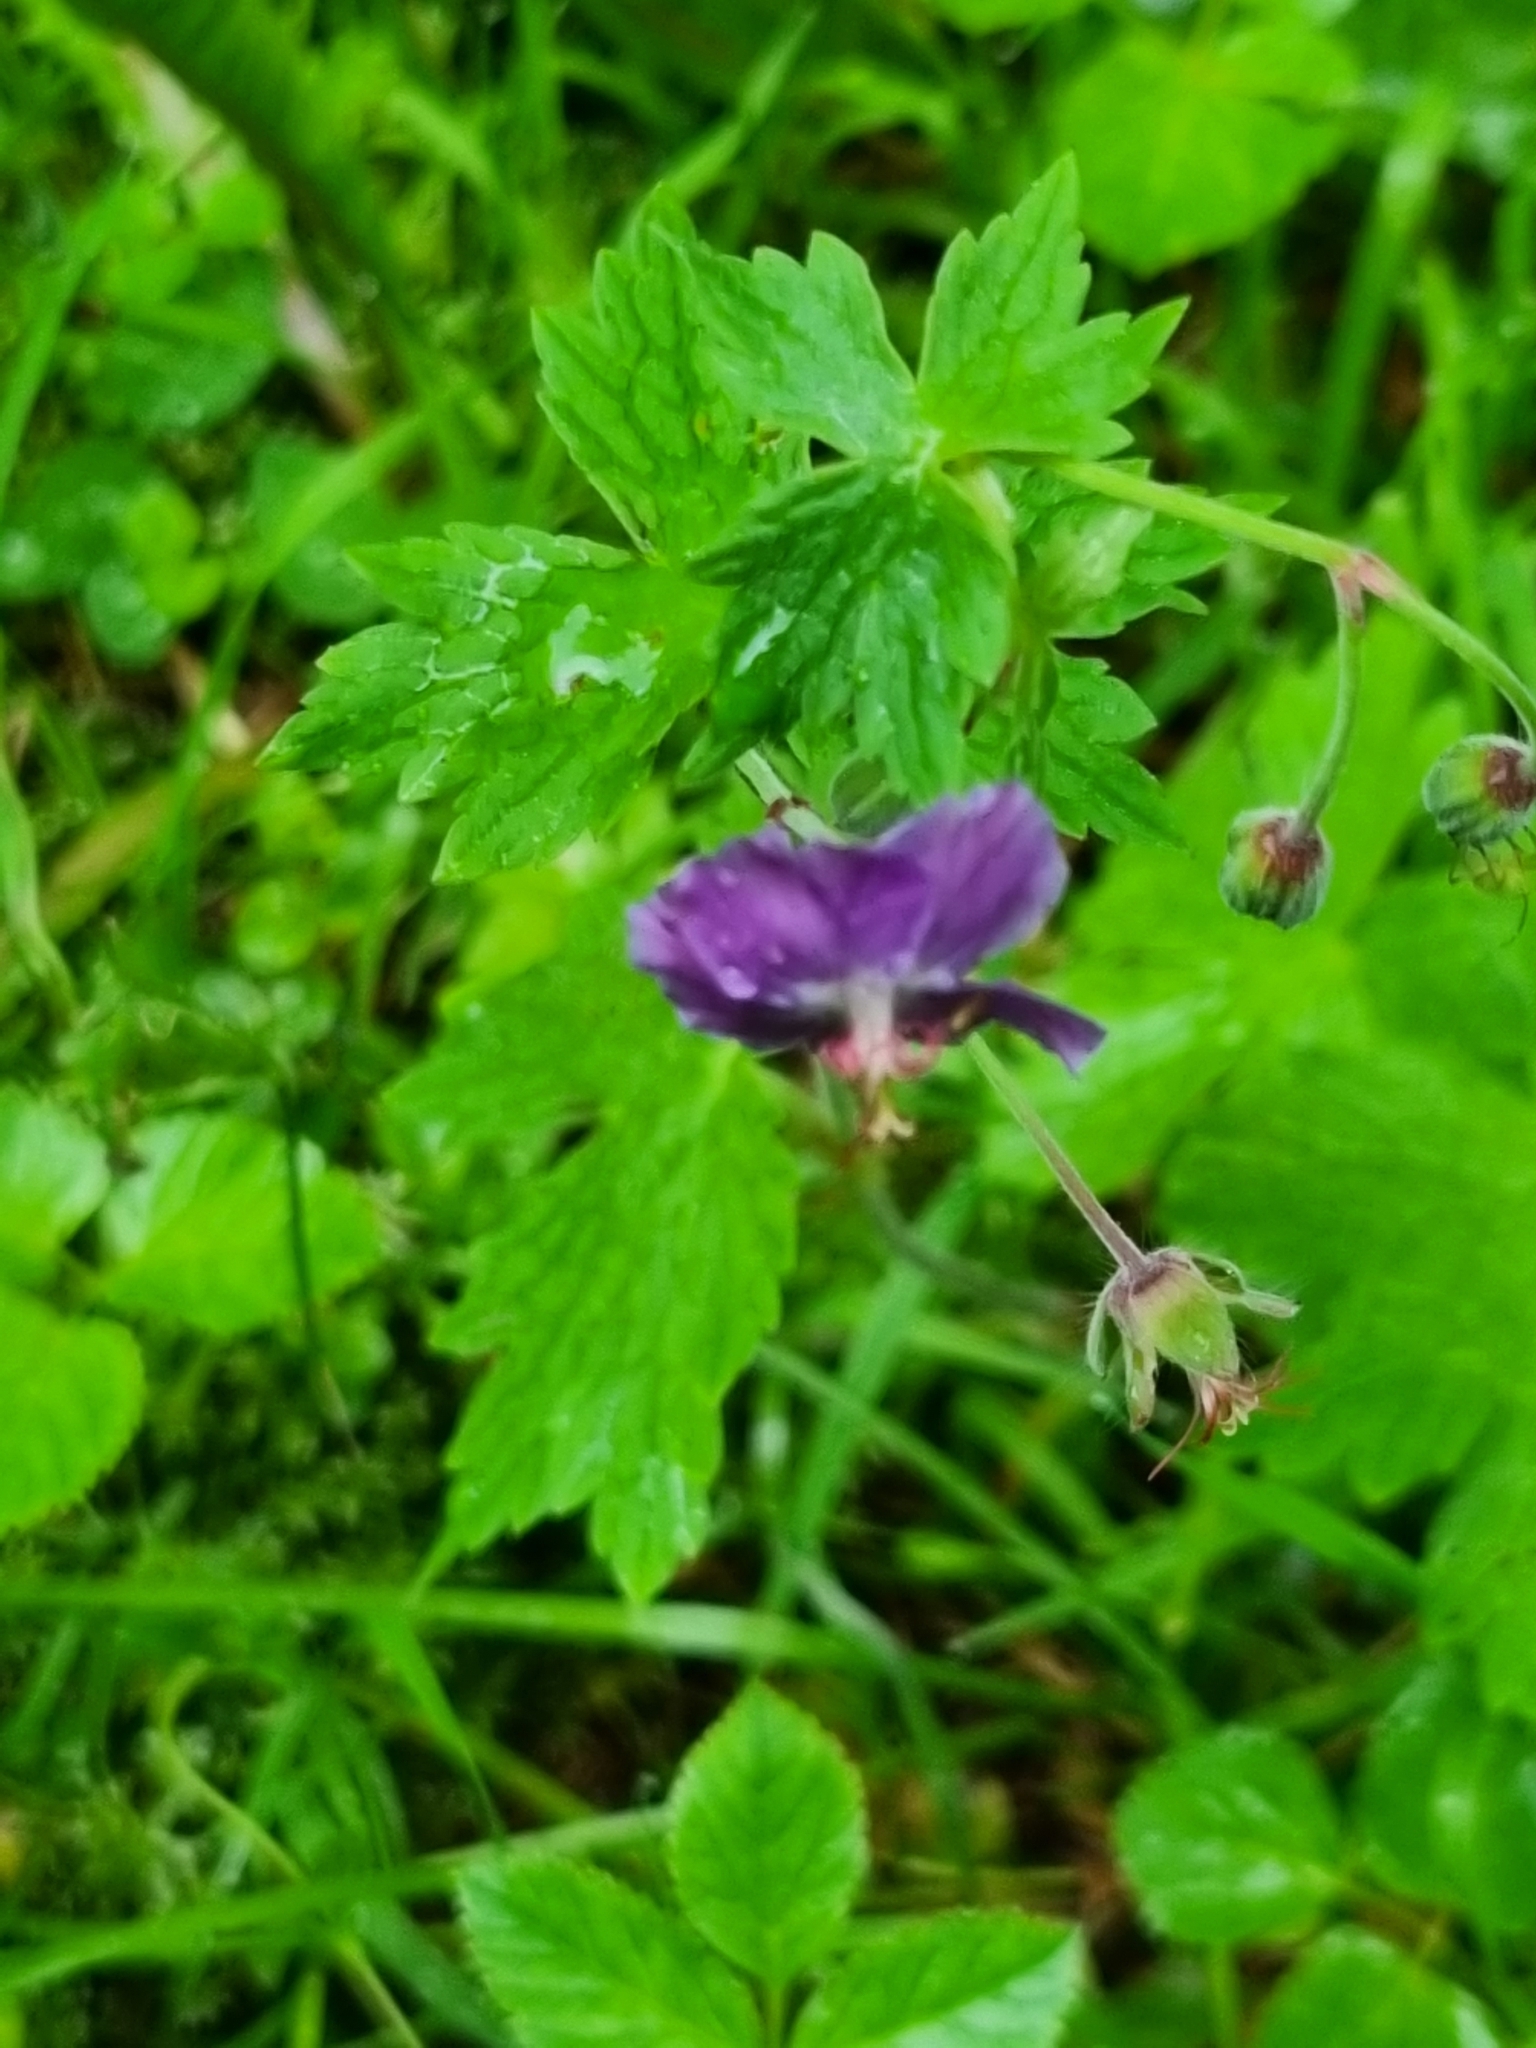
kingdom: Plantae
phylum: Tracheophyta
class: Magnoliopsida
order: Geraniales
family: Geraniaceae
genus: Geranium
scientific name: Geranium phaeum
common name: Dusky crane's-bill
